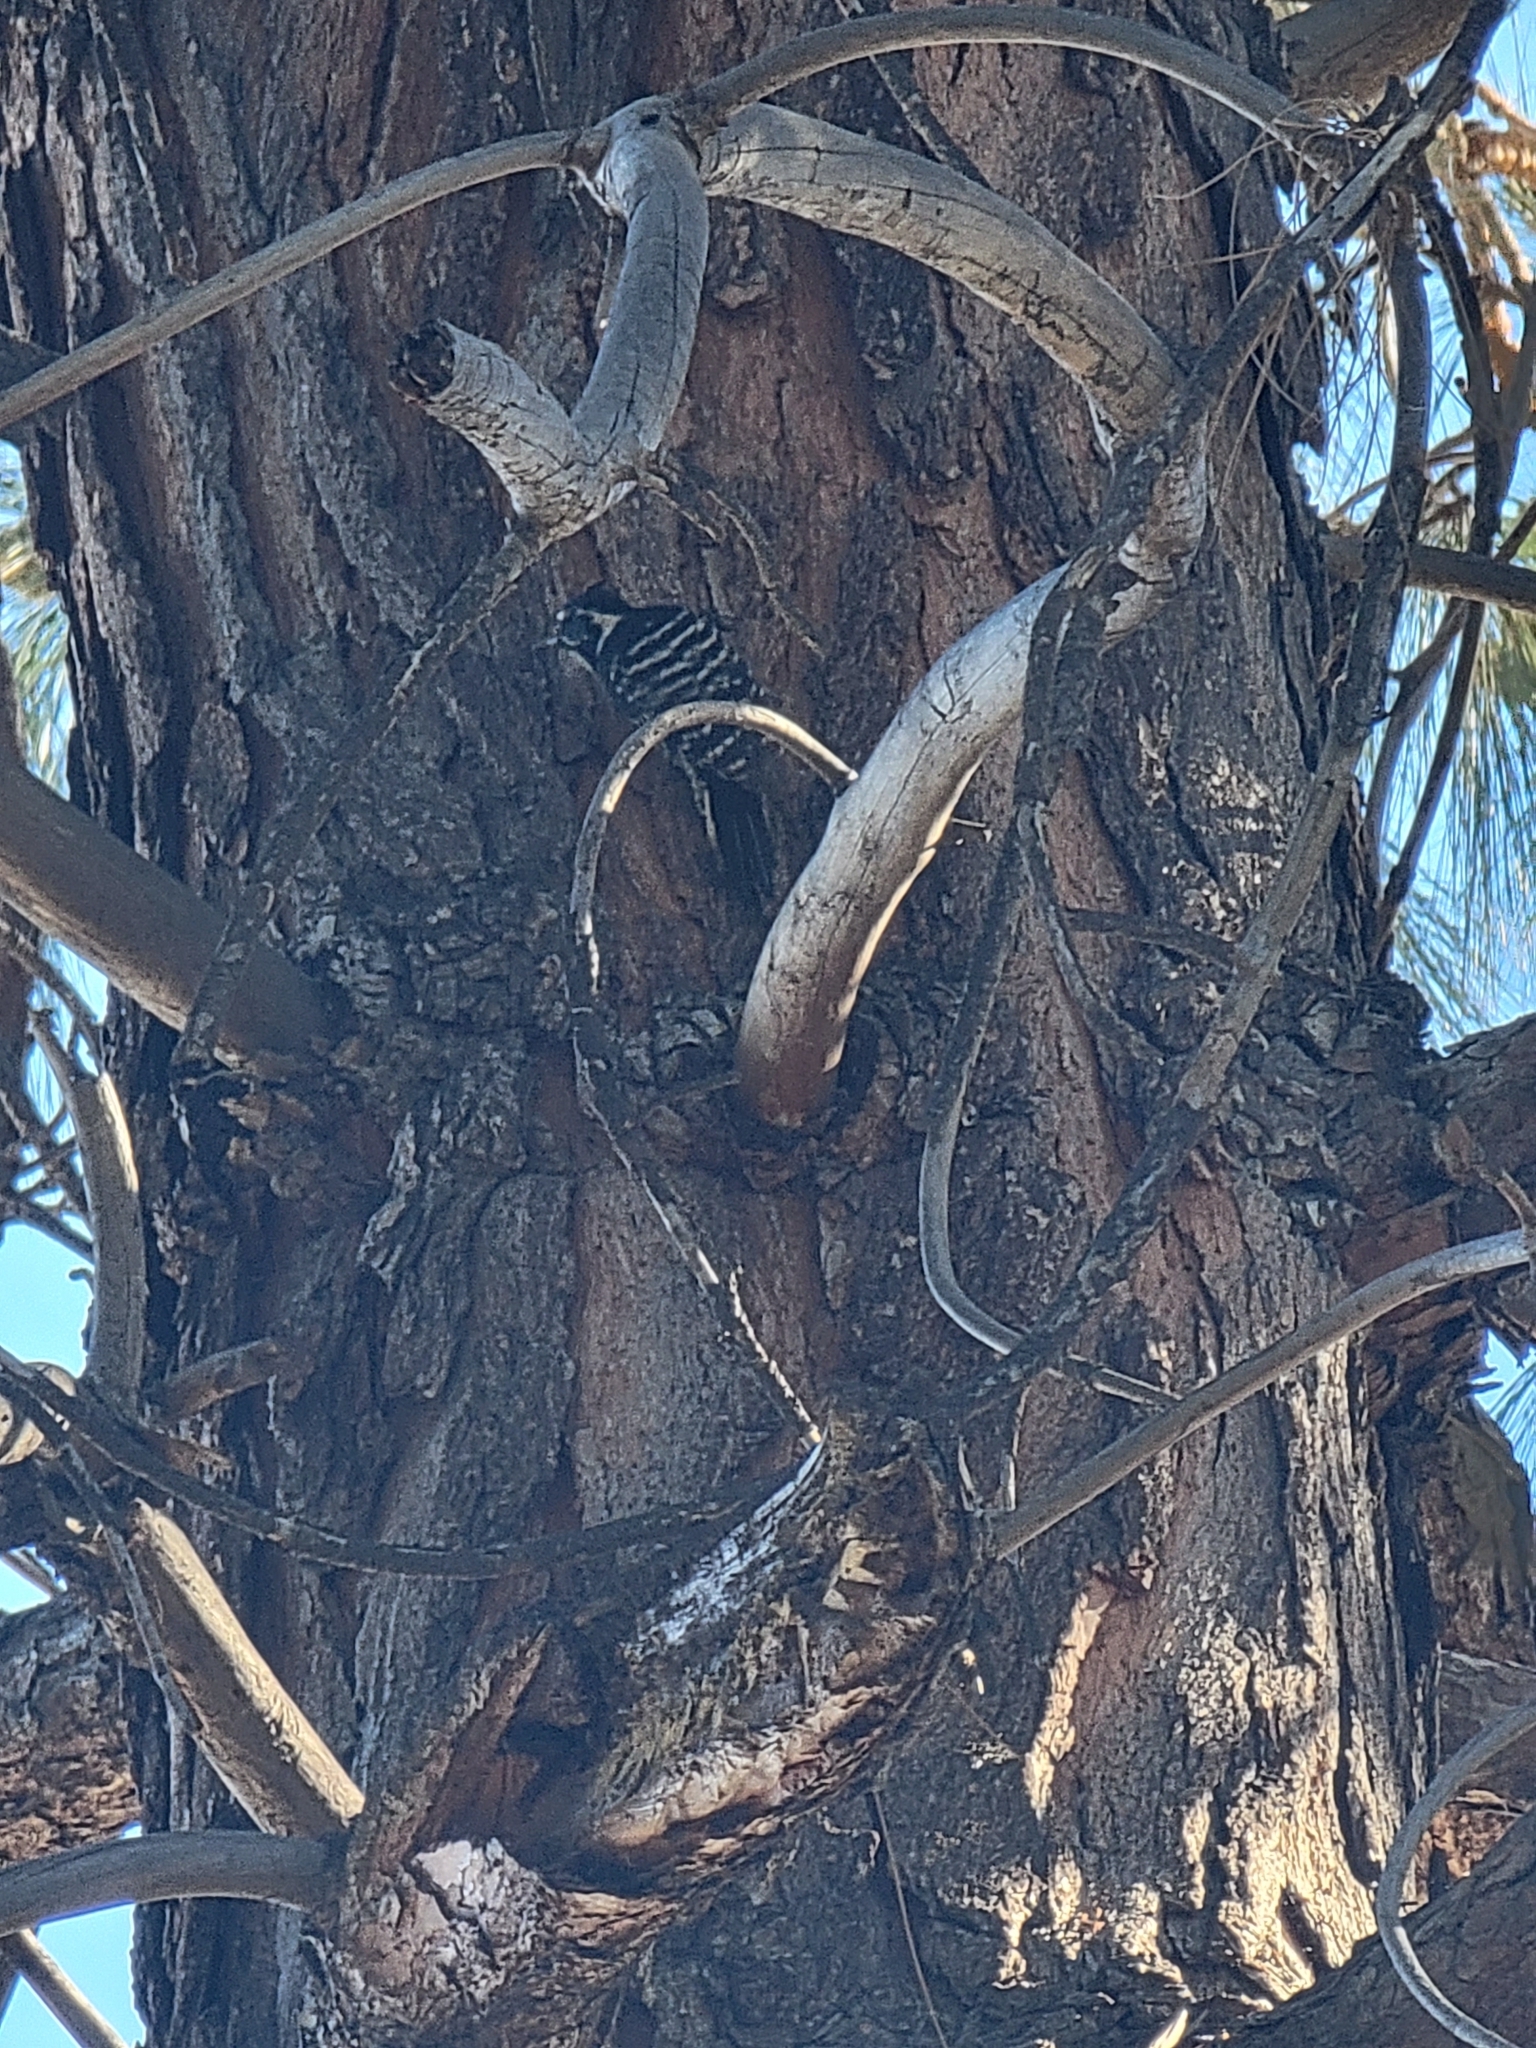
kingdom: Animalia
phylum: Chordata
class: Aves
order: Piciformes
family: Picidae
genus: Dryobates
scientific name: Dryobates nuttallii
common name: Nuttall's woodpecker
